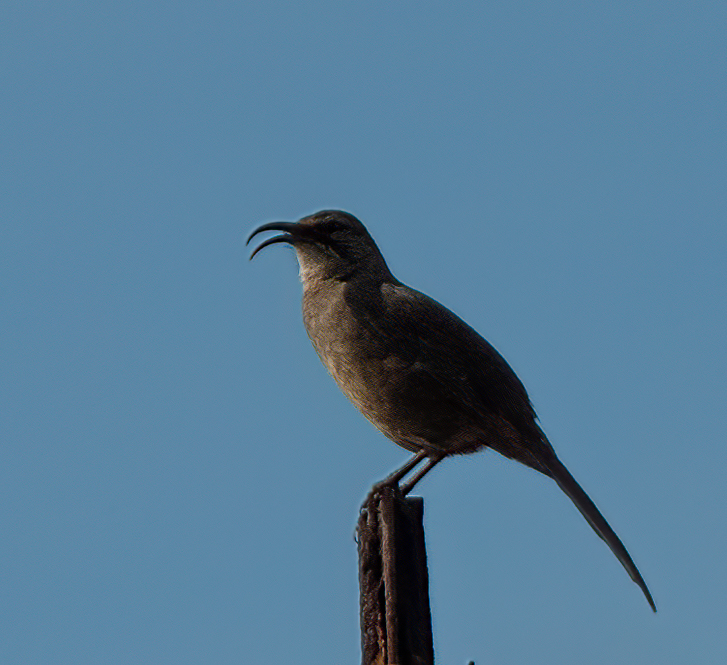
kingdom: Animalia
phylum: Chordata
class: Aves
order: Passeriformes
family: Mimidae
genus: Toxostoma
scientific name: Toxostoma redivivum
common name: California thrasher
